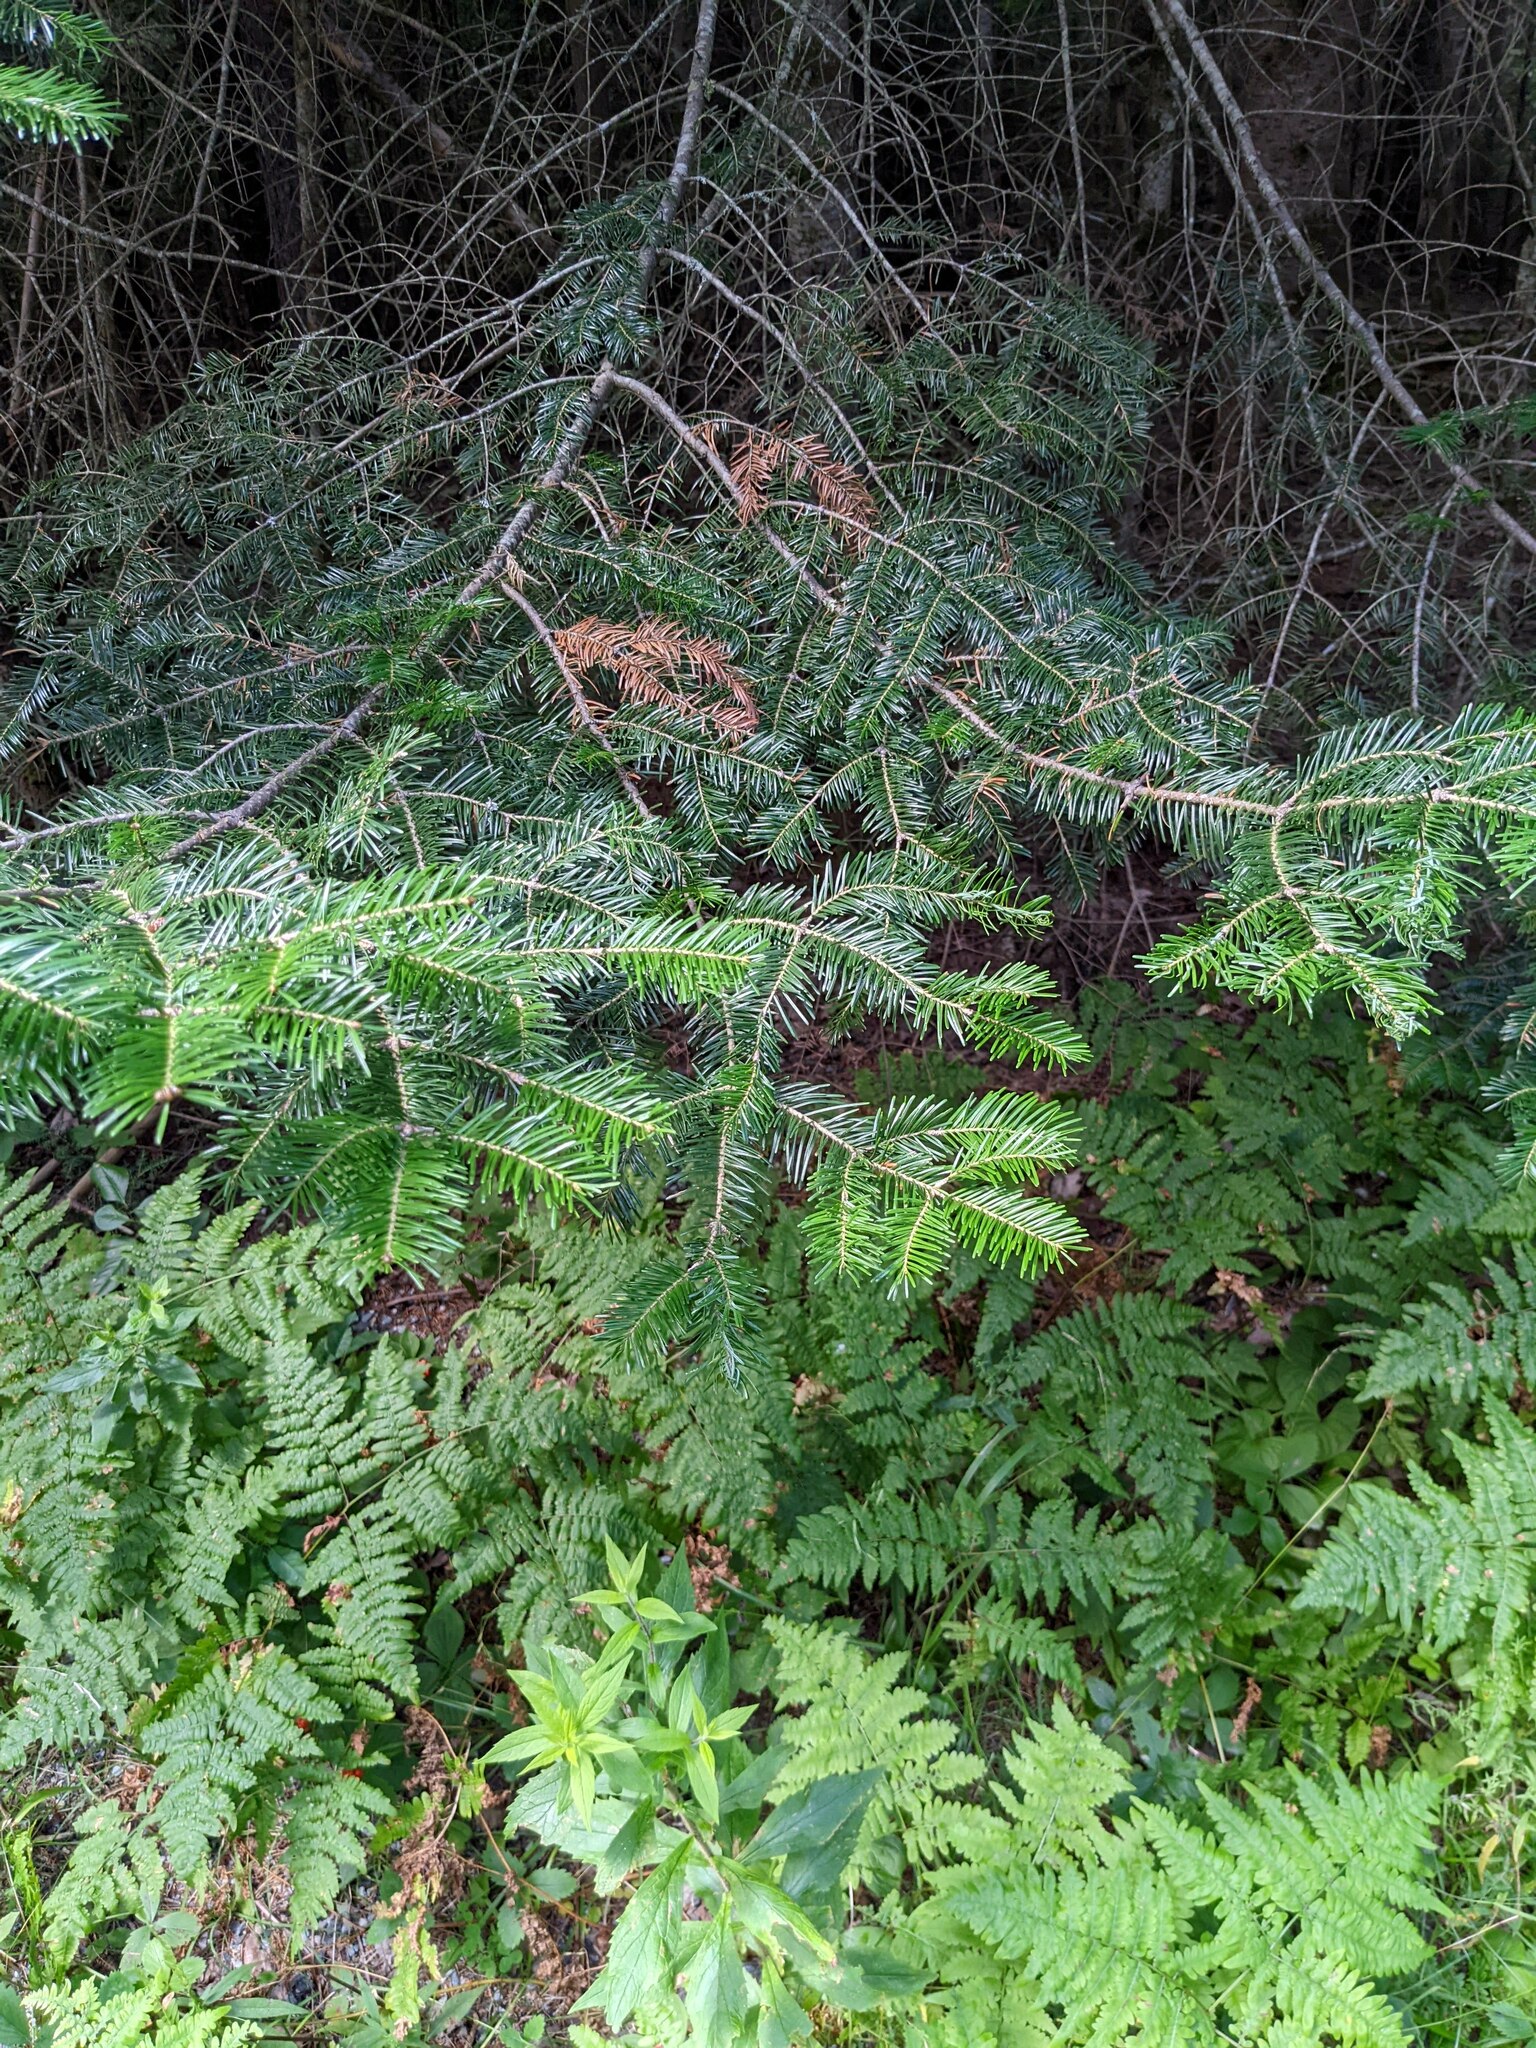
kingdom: Plantae
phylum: Tracheophyta
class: Pinopsida
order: Pinales
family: Pinaceae
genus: Abies
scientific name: Abies balsamea
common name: Balsam fir
